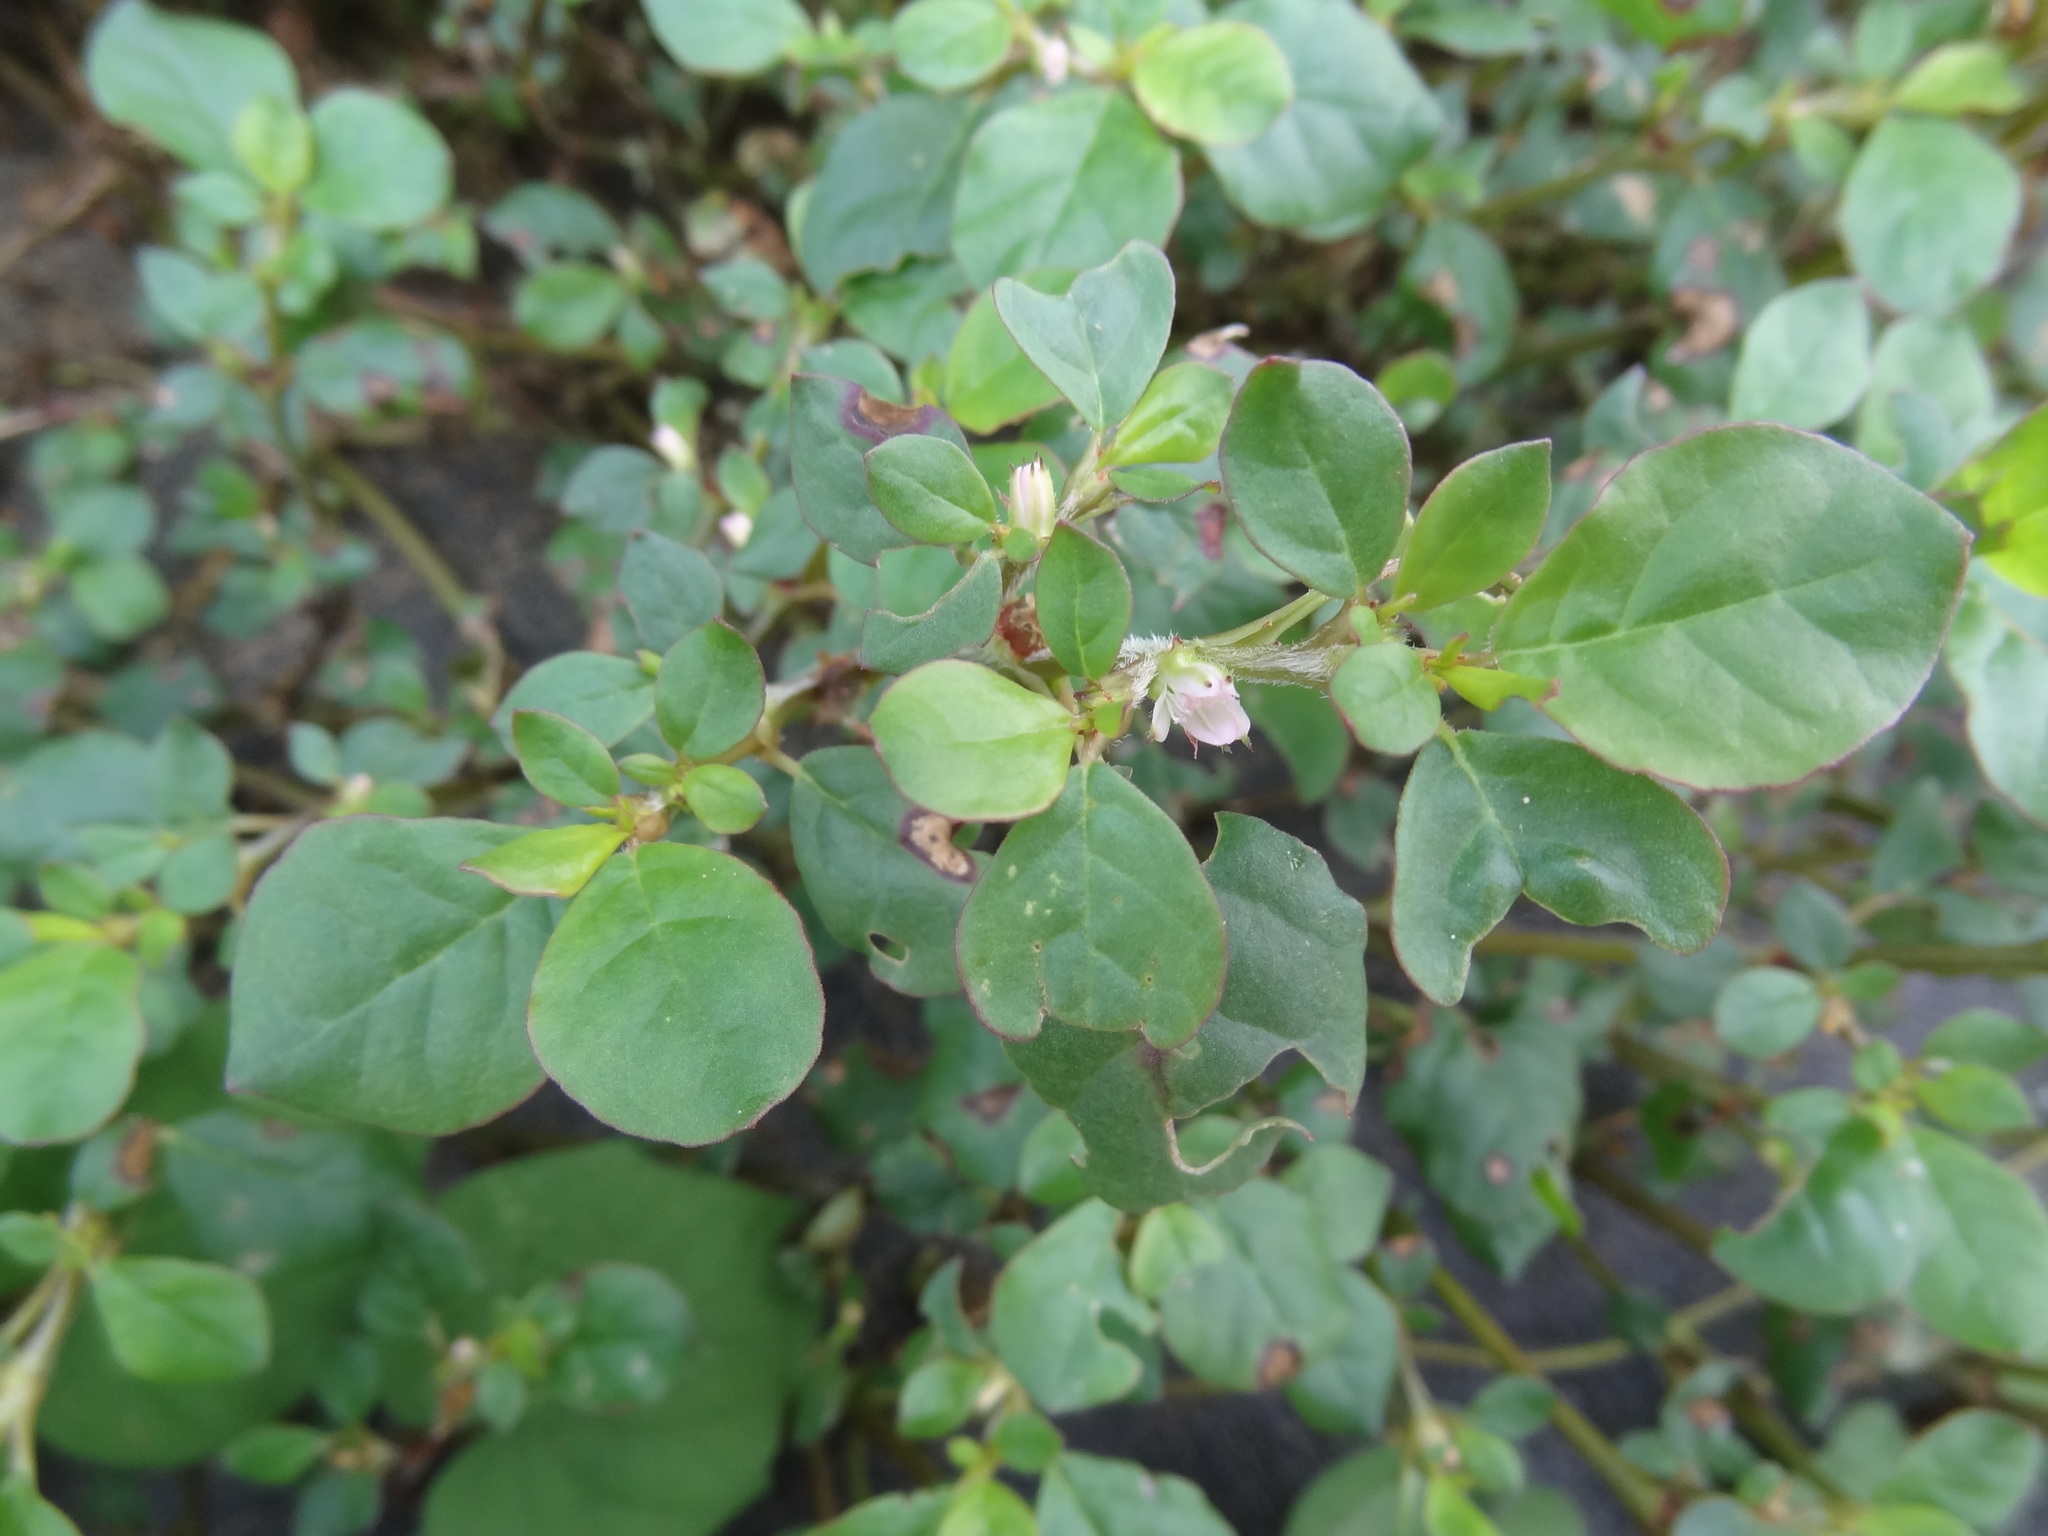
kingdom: Plantae
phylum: Tracheophyta
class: Magnoliopsida
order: Caryophyllales
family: Aizoaceae
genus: Trianthema
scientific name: Trianthema portulacastrum
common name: Desert horsepurslane
